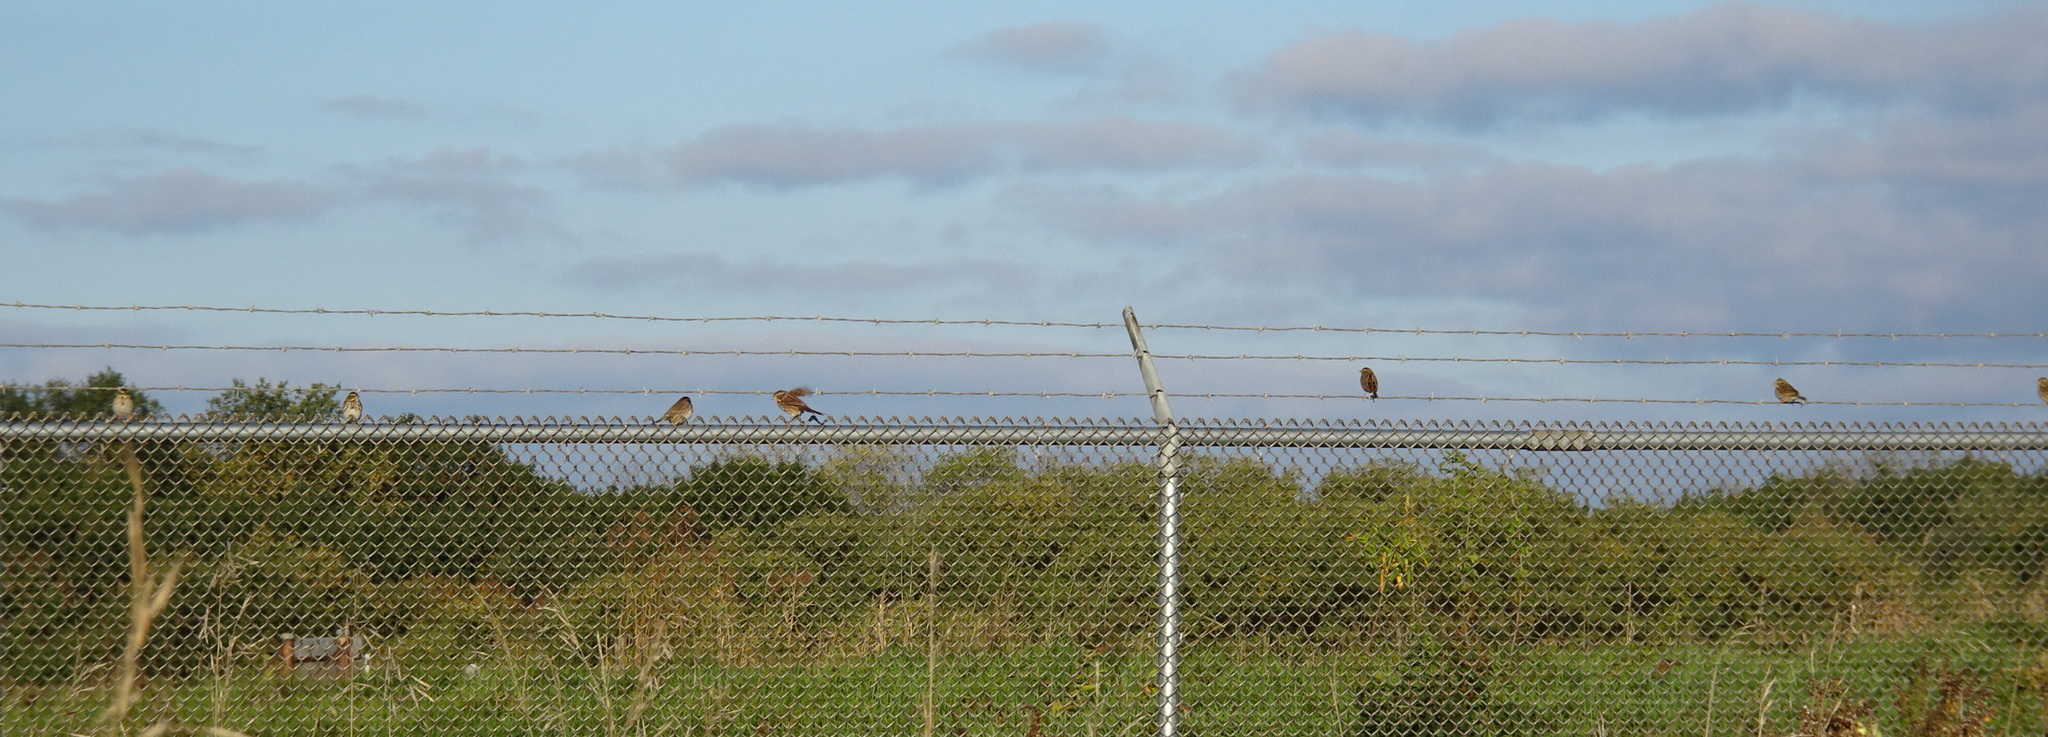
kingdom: Animalia
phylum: Chordata
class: Aves
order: Passeriformes
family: Passerellidae
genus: Passerculus
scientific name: Passerculus sandwichensis
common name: Savannah sparrow
